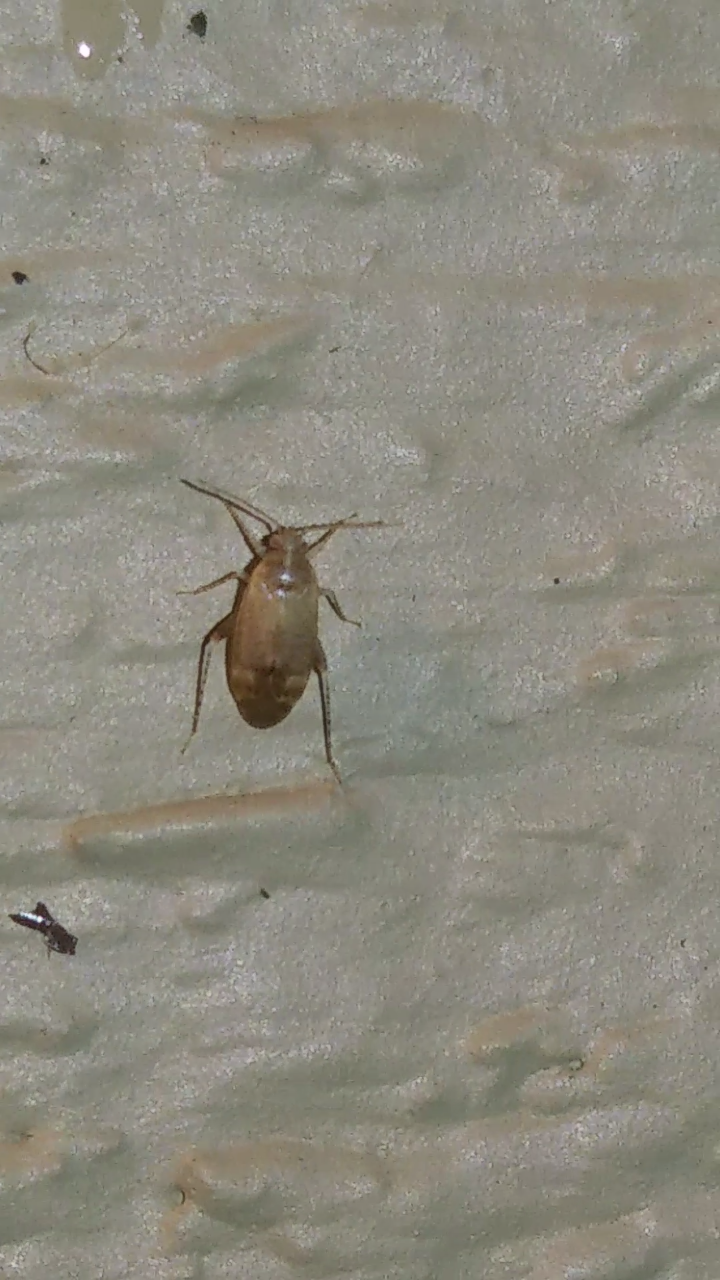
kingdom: Animalia
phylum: Arthropoda
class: Insecta
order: Hemiptera
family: Miridae
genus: Hamatophylus
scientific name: Hamatophylus guttulosus
